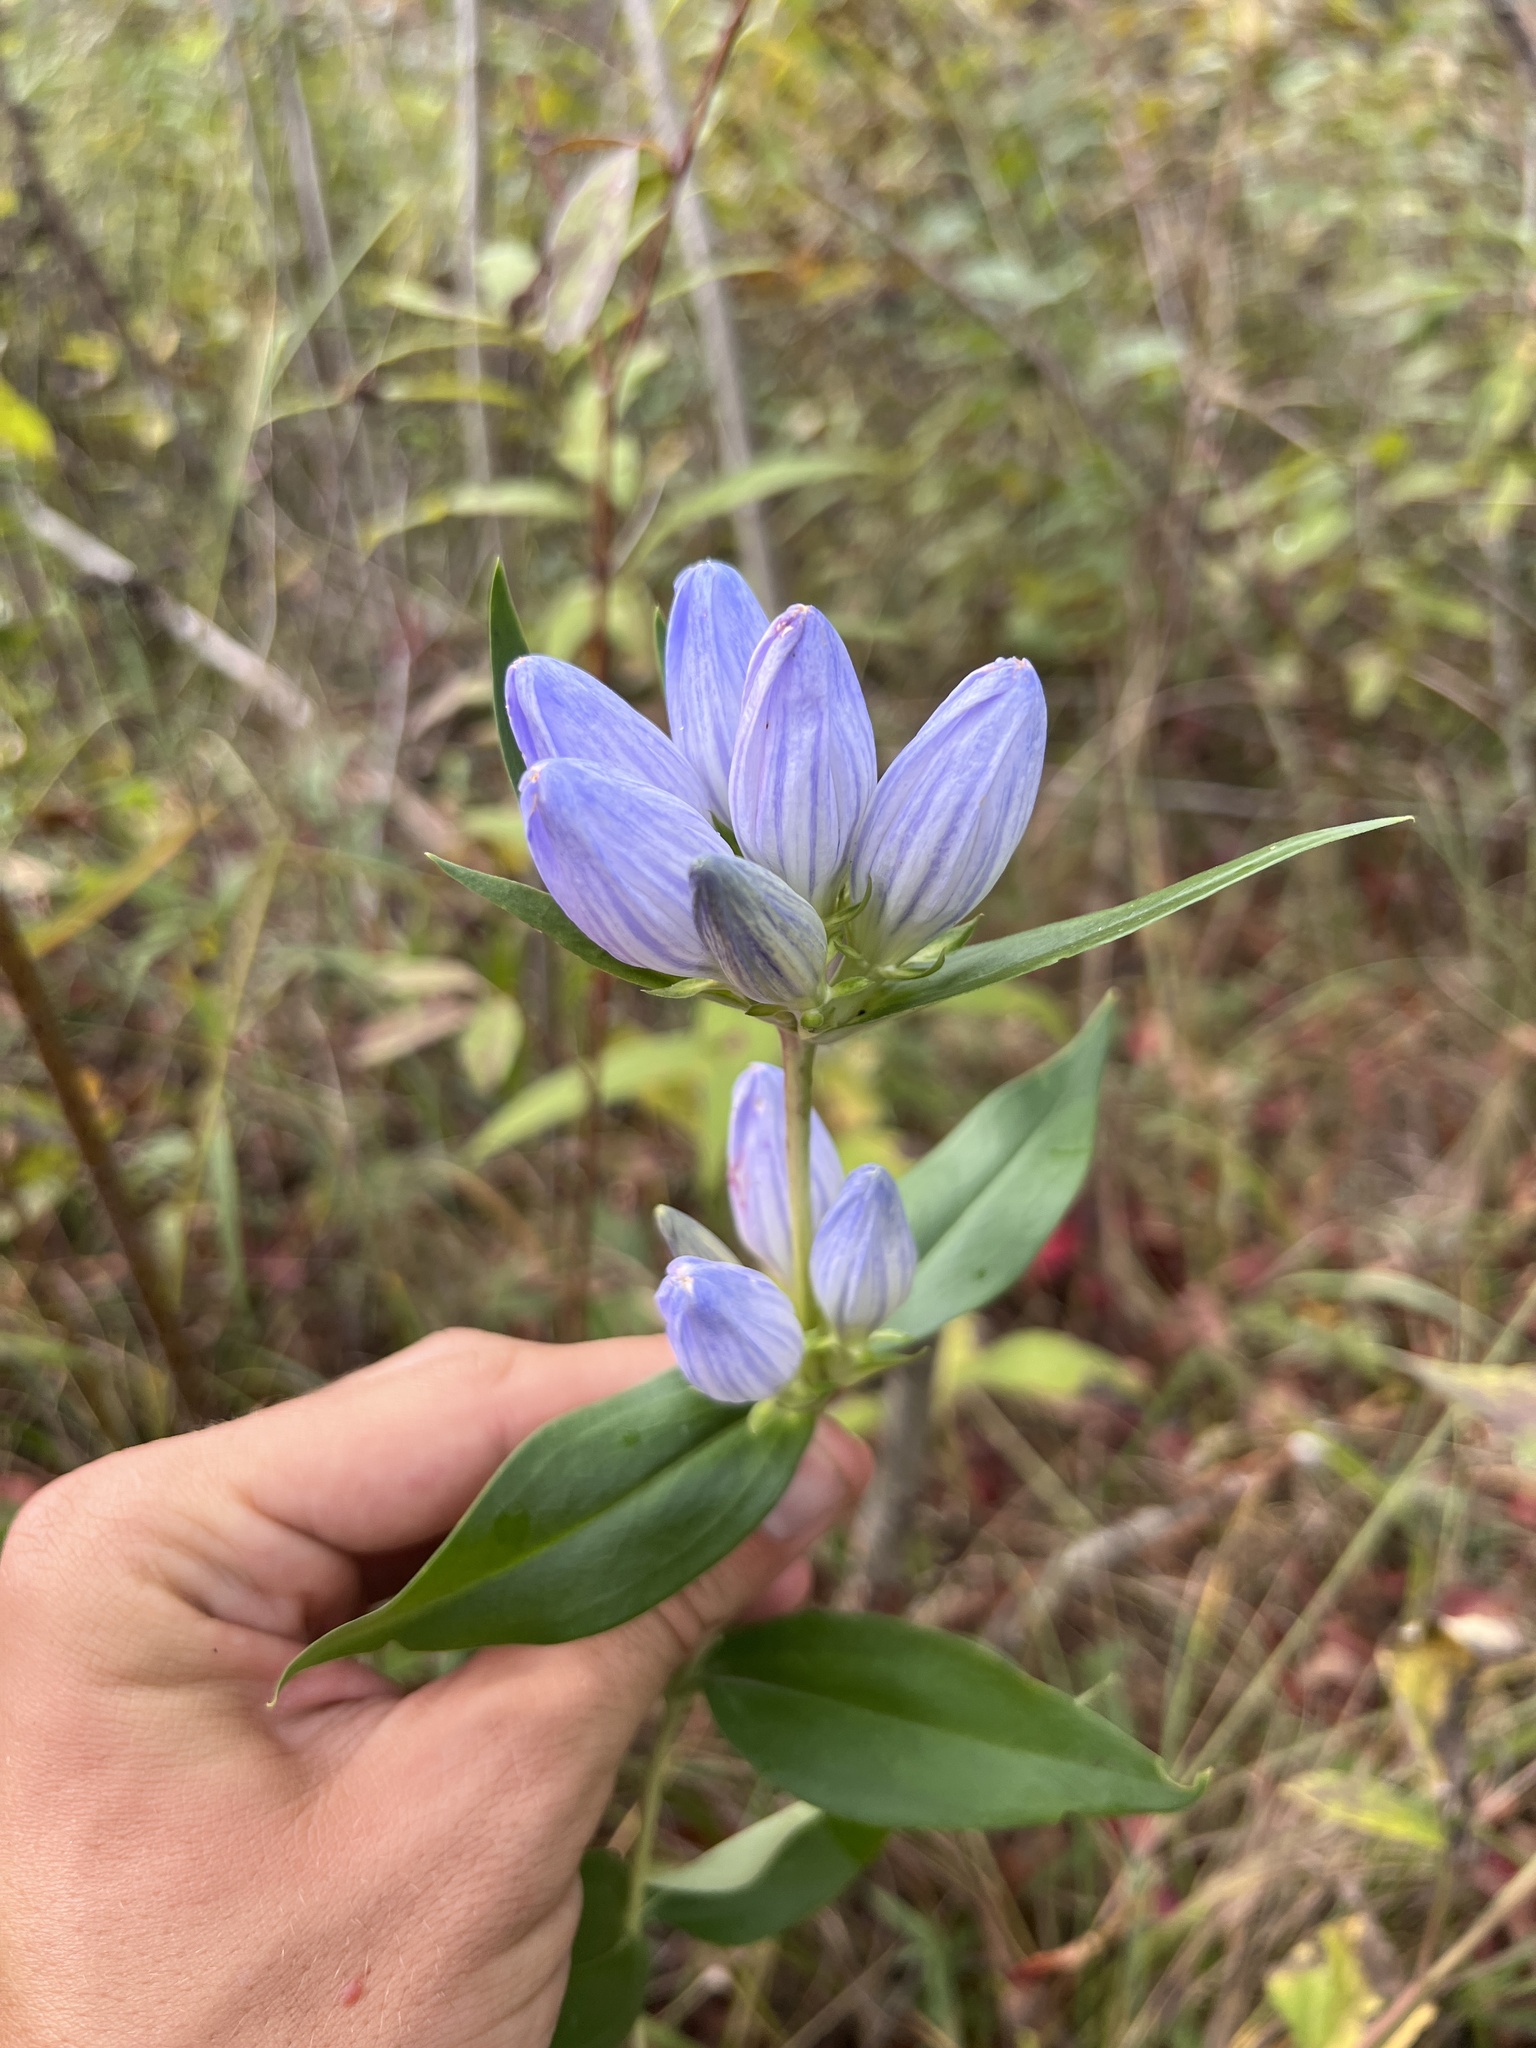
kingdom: Plantae
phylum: Tracheophyta
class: Magnoliopsida
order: Gentianales
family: Gentianaceae
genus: Gentiana
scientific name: Gentiana andrewsii
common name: Bottle gentian
